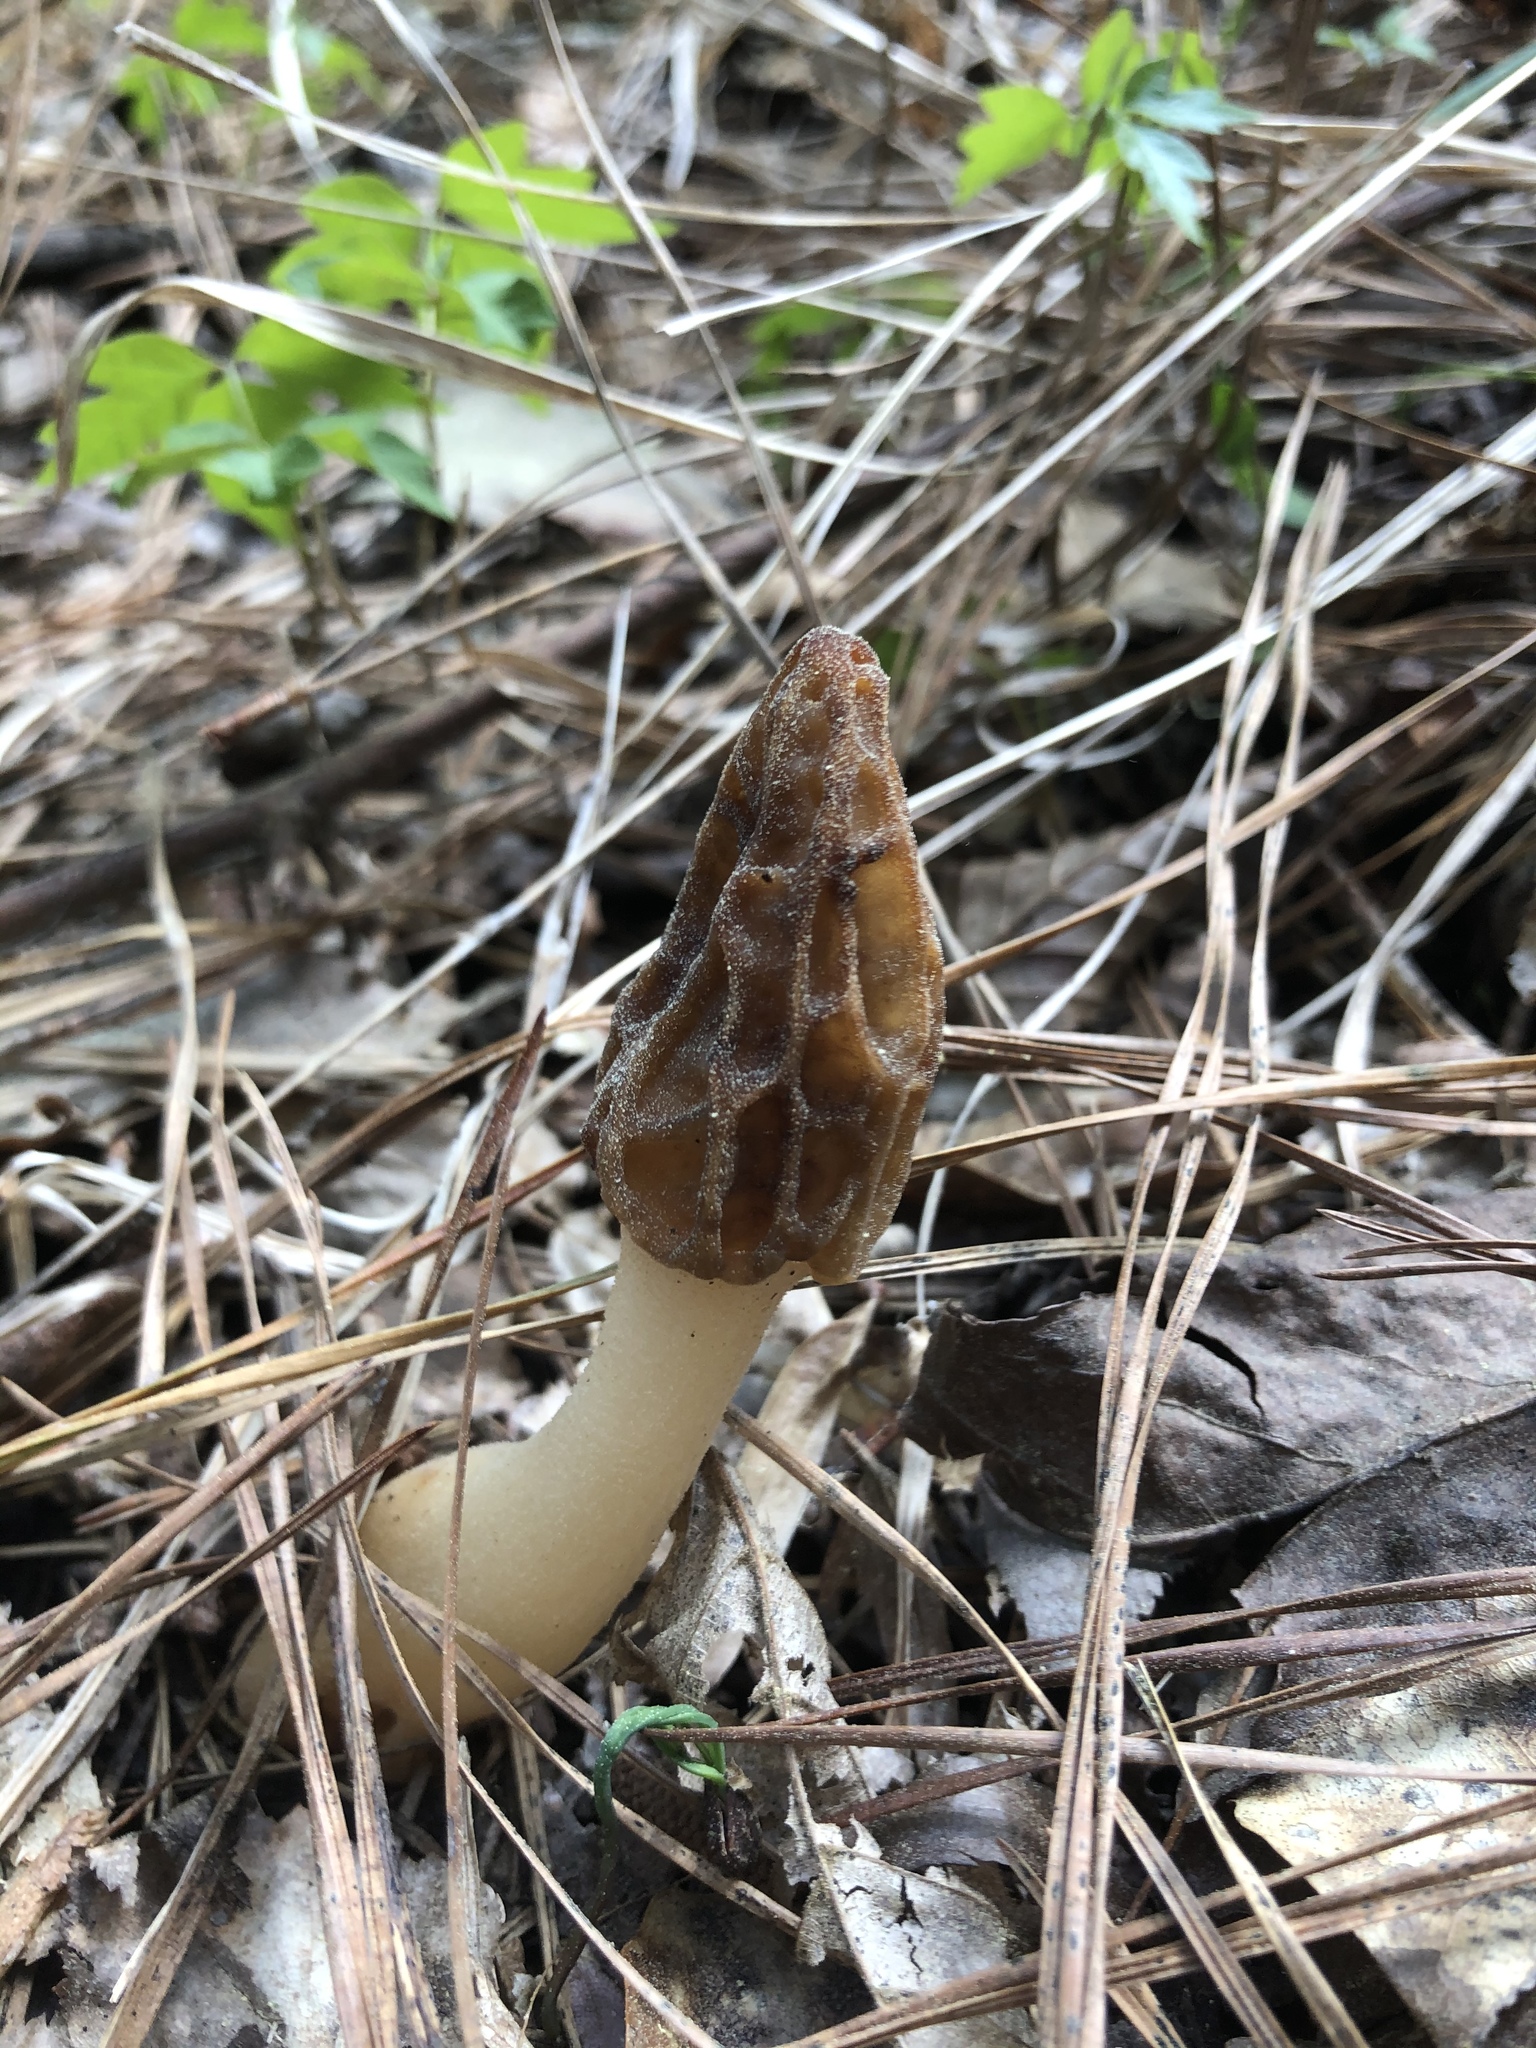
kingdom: Fungi
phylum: Ascomycota
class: Pezizomycetes
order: Pezizales
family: Morchellaceae
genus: Morchella
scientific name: Morchella diminutiva
